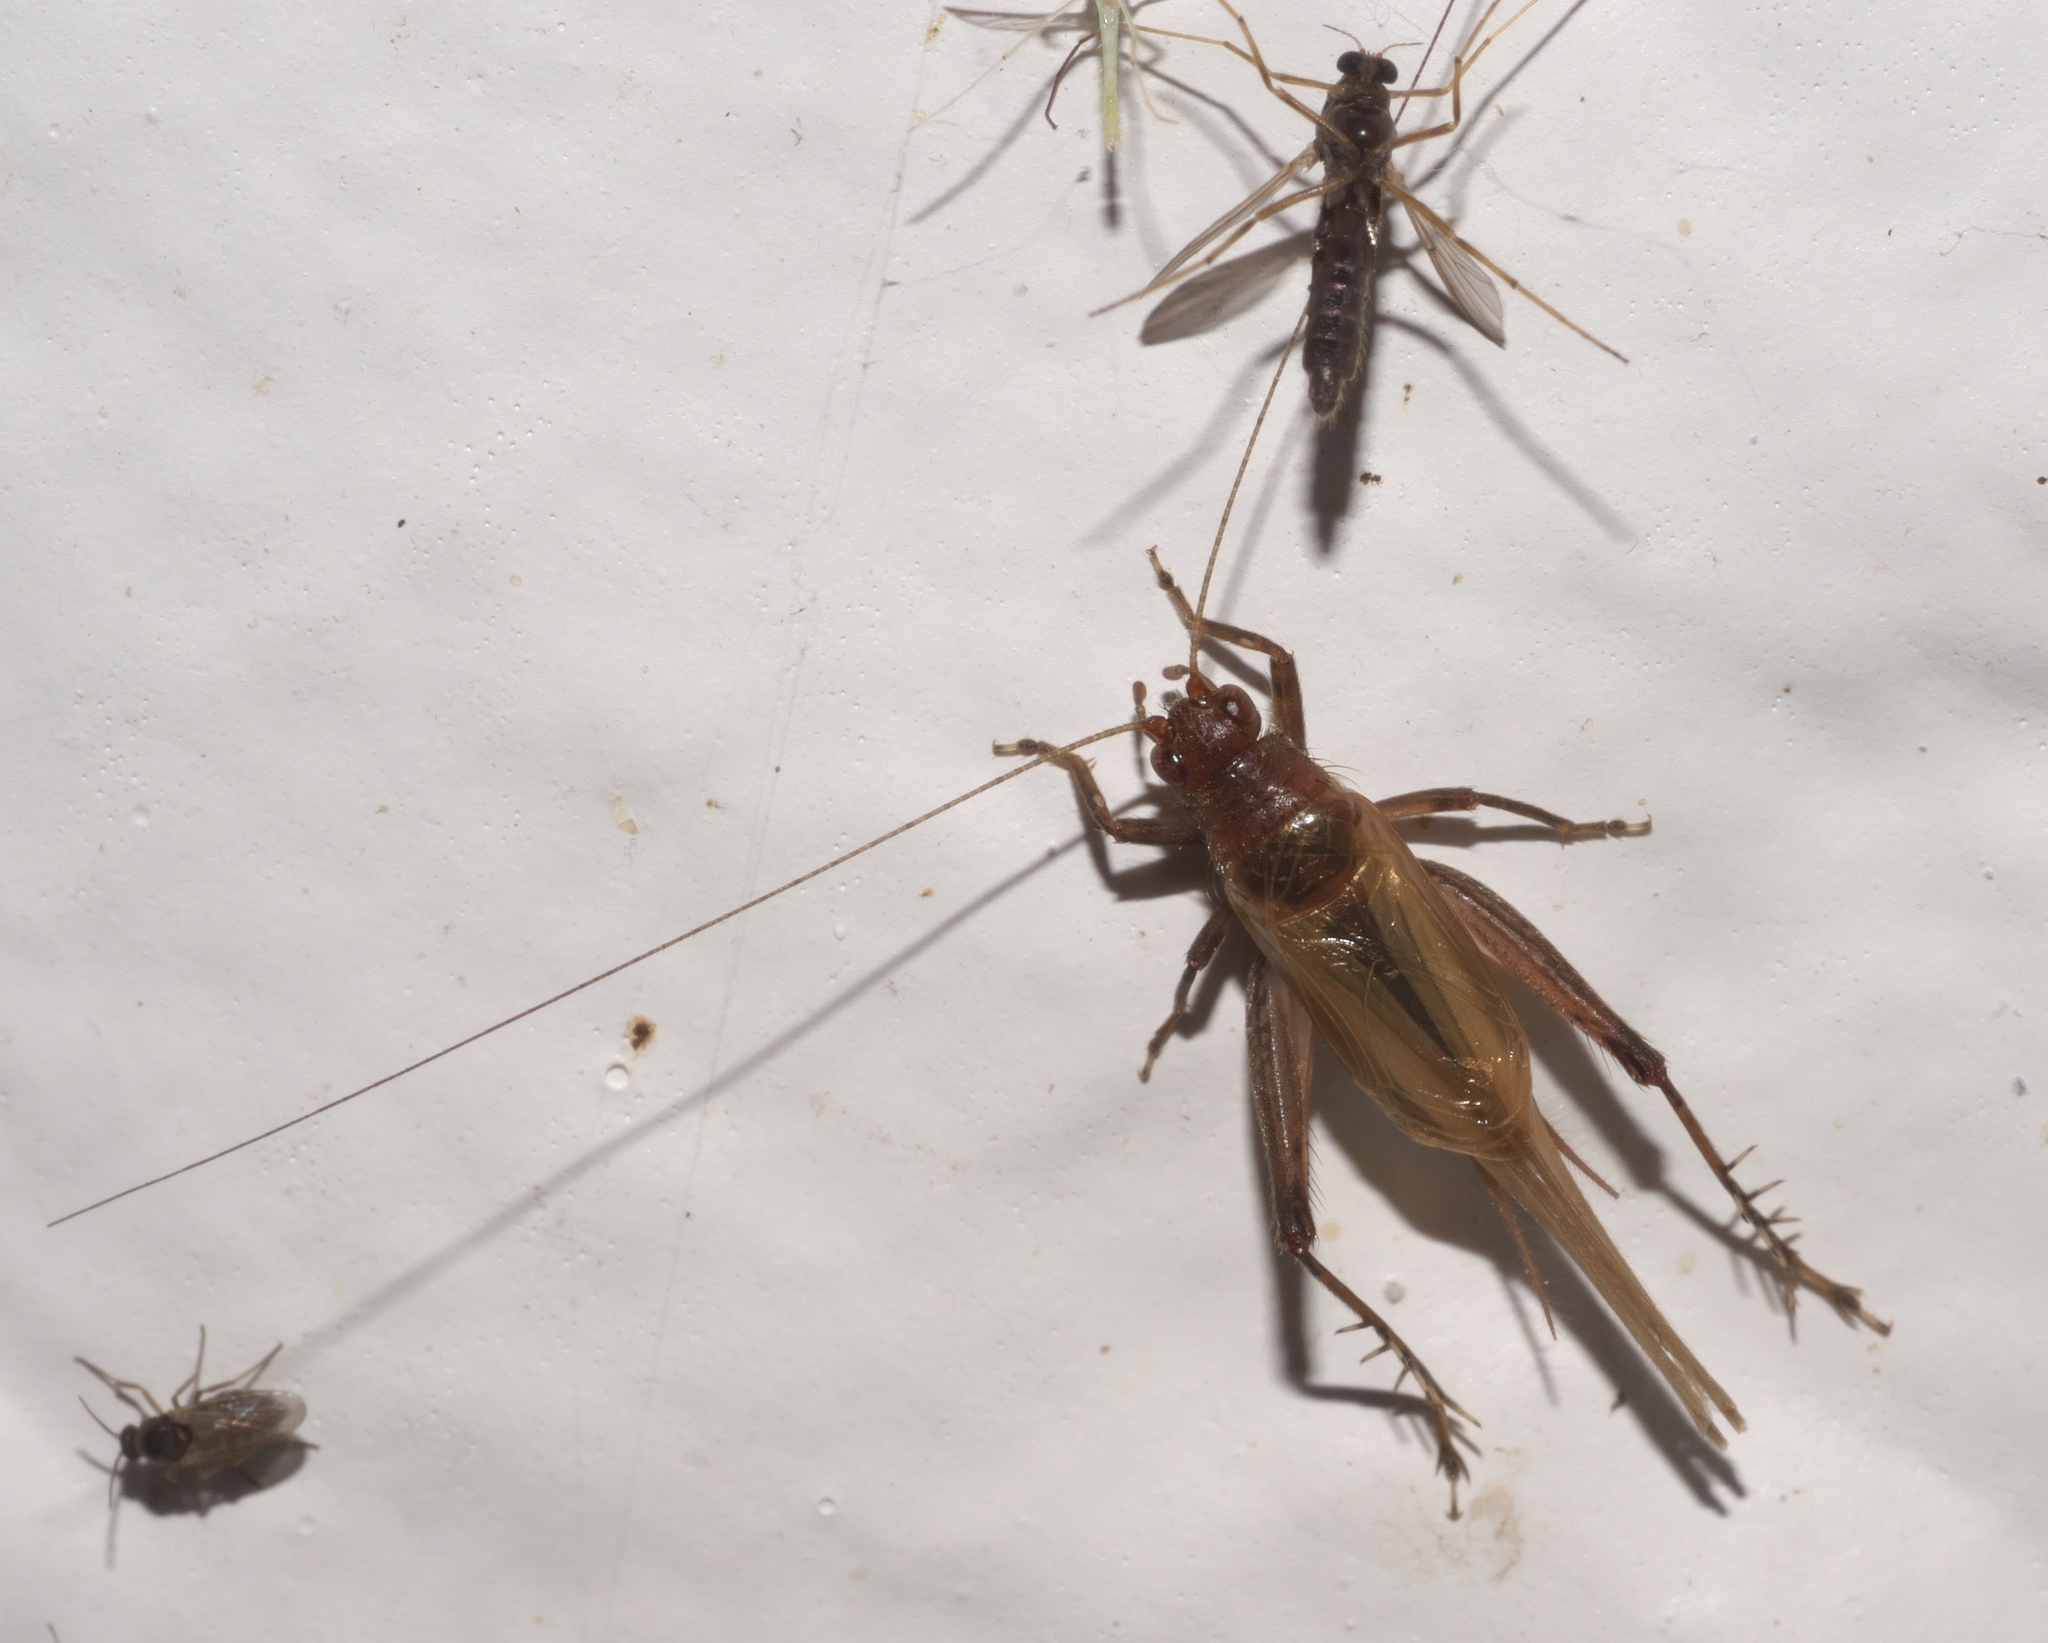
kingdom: Animalia
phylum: Arthropoda
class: Insecta
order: Orthoptera
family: Trigonidiidae
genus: Anaxipha
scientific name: Anaxipha vernalis
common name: Spring trig
